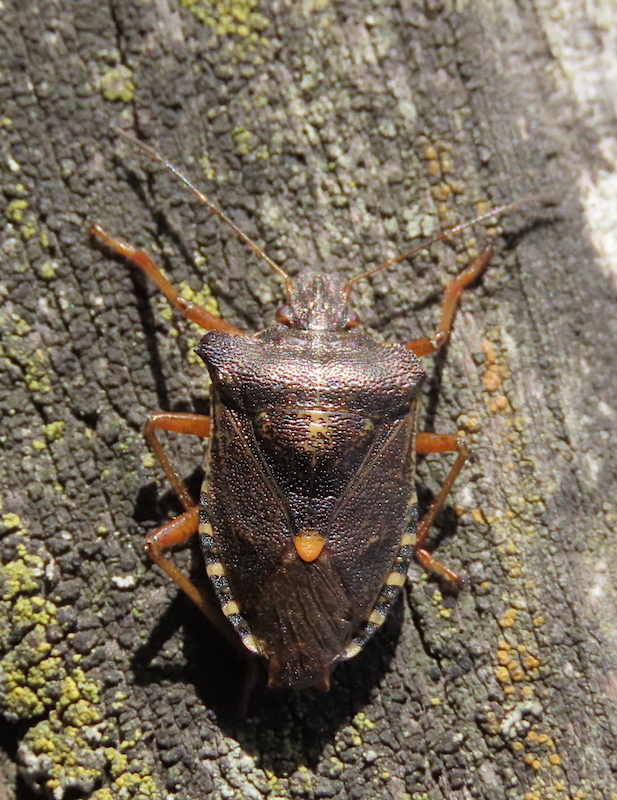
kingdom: Animalia
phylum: Arthropoda
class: Insecta
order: Hemiptera
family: Pentatomidae
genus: Pentatoma
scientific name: Pentatoma rufipes
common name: Forest bug
